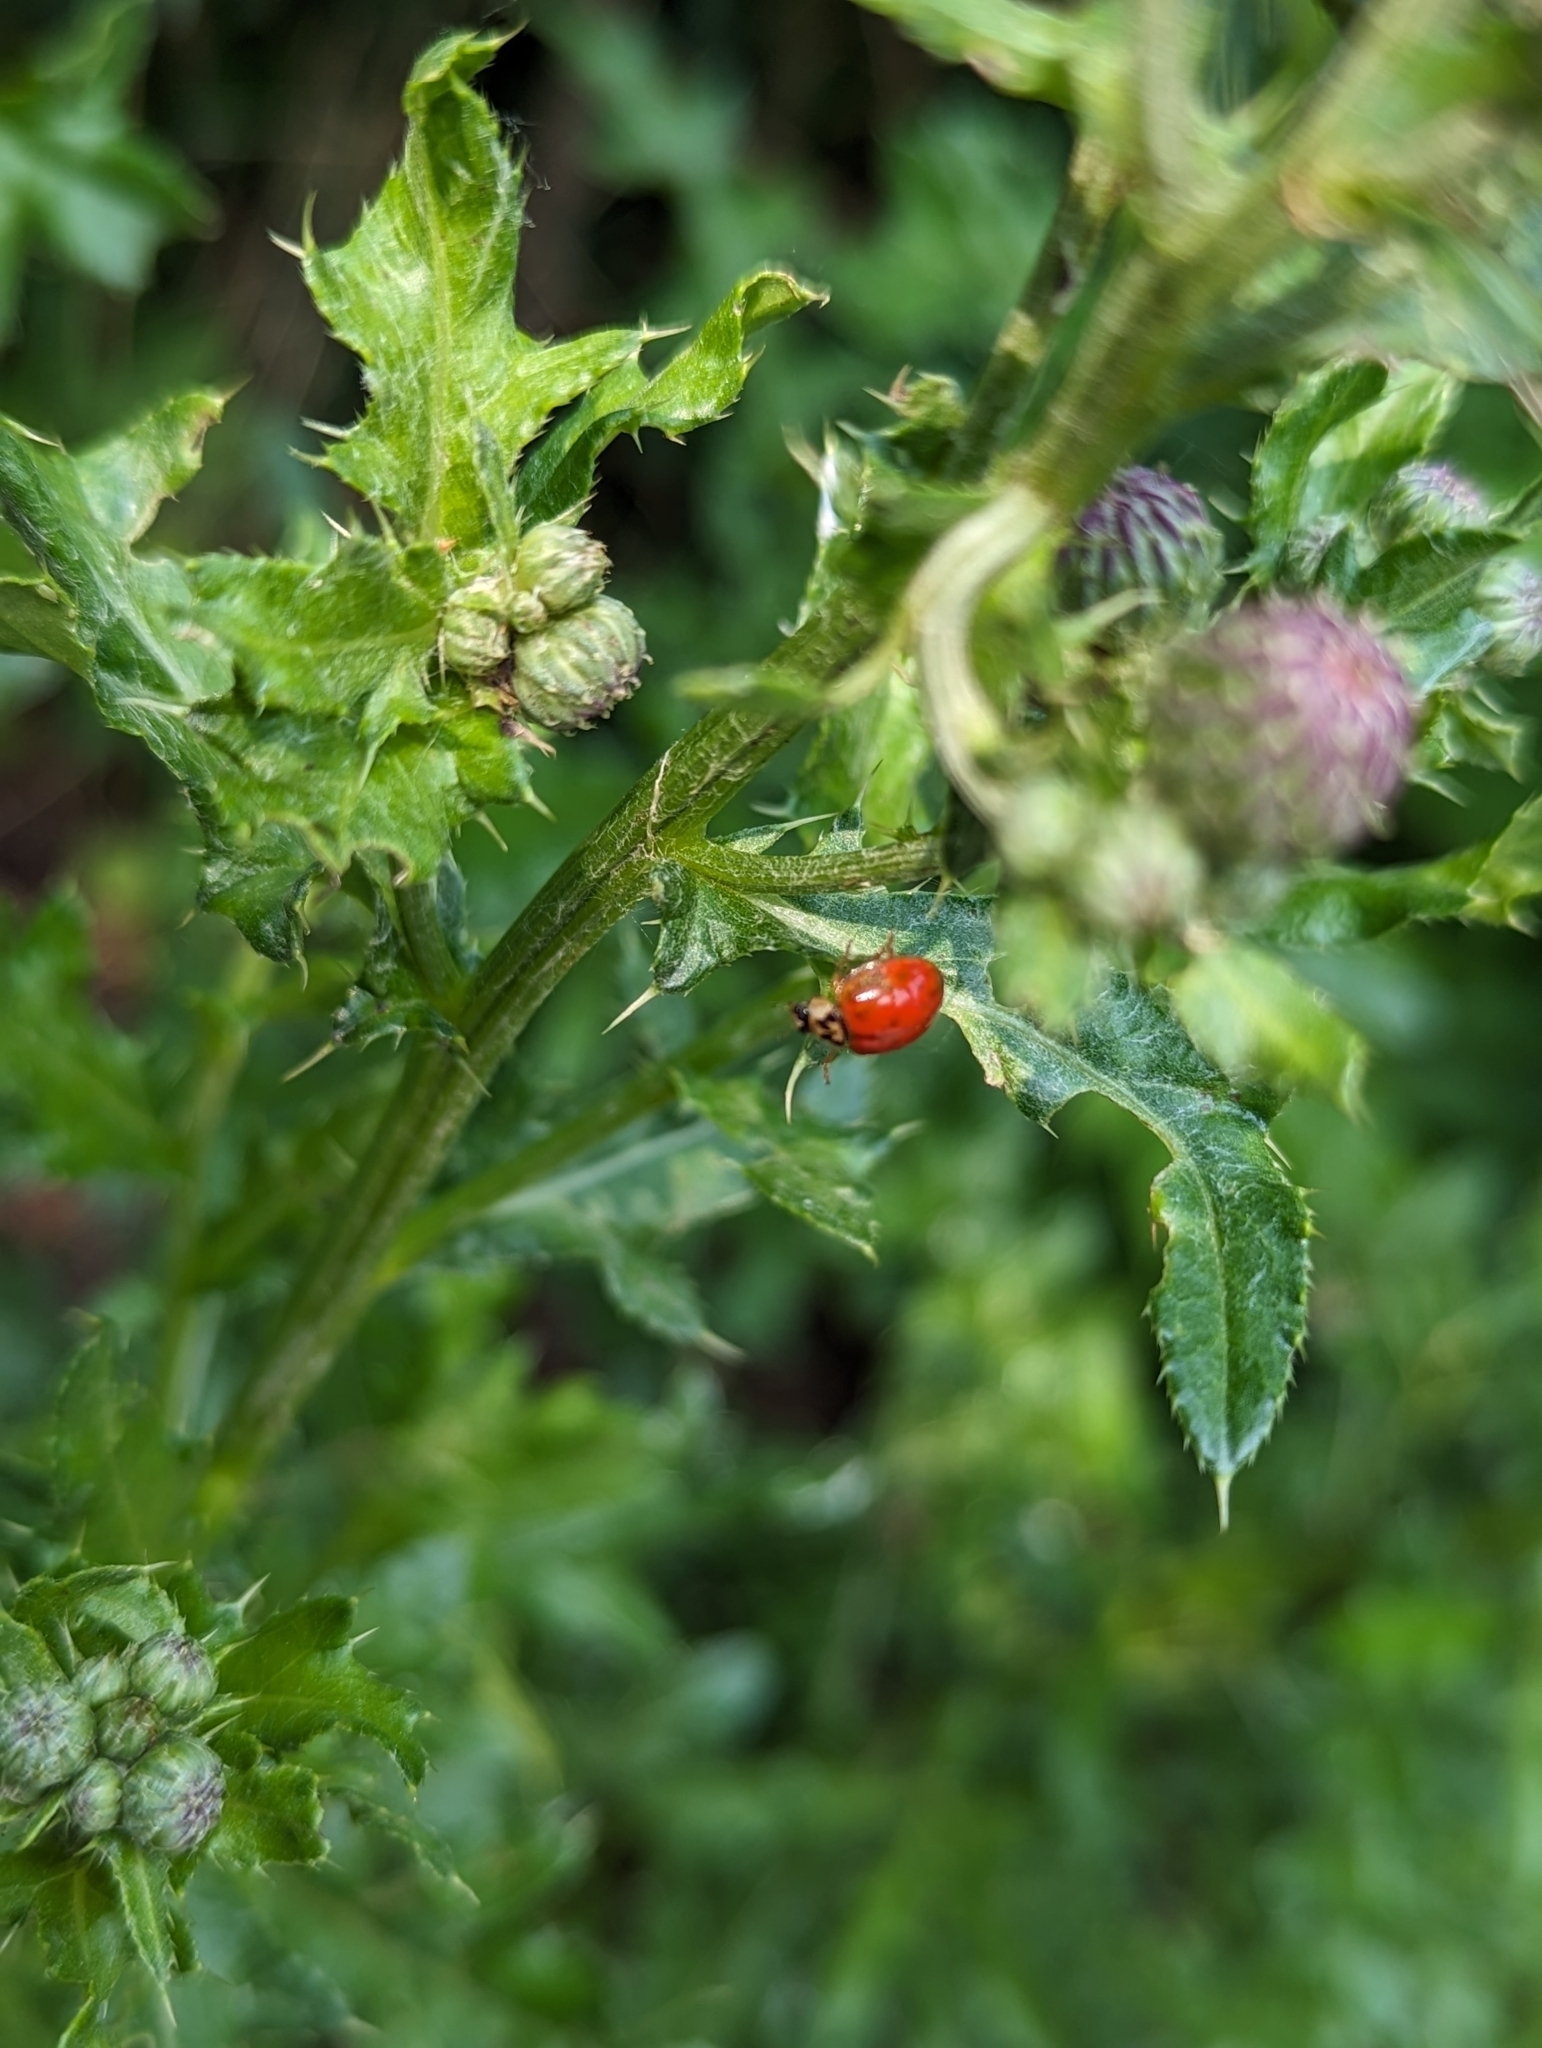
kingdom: Animalia
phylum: Arthropoda
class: Insecta
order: Coleoptera
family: Coccinellidae
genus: Harmonia
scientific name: Harmonia axyridis
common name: Harlequin ladybird
